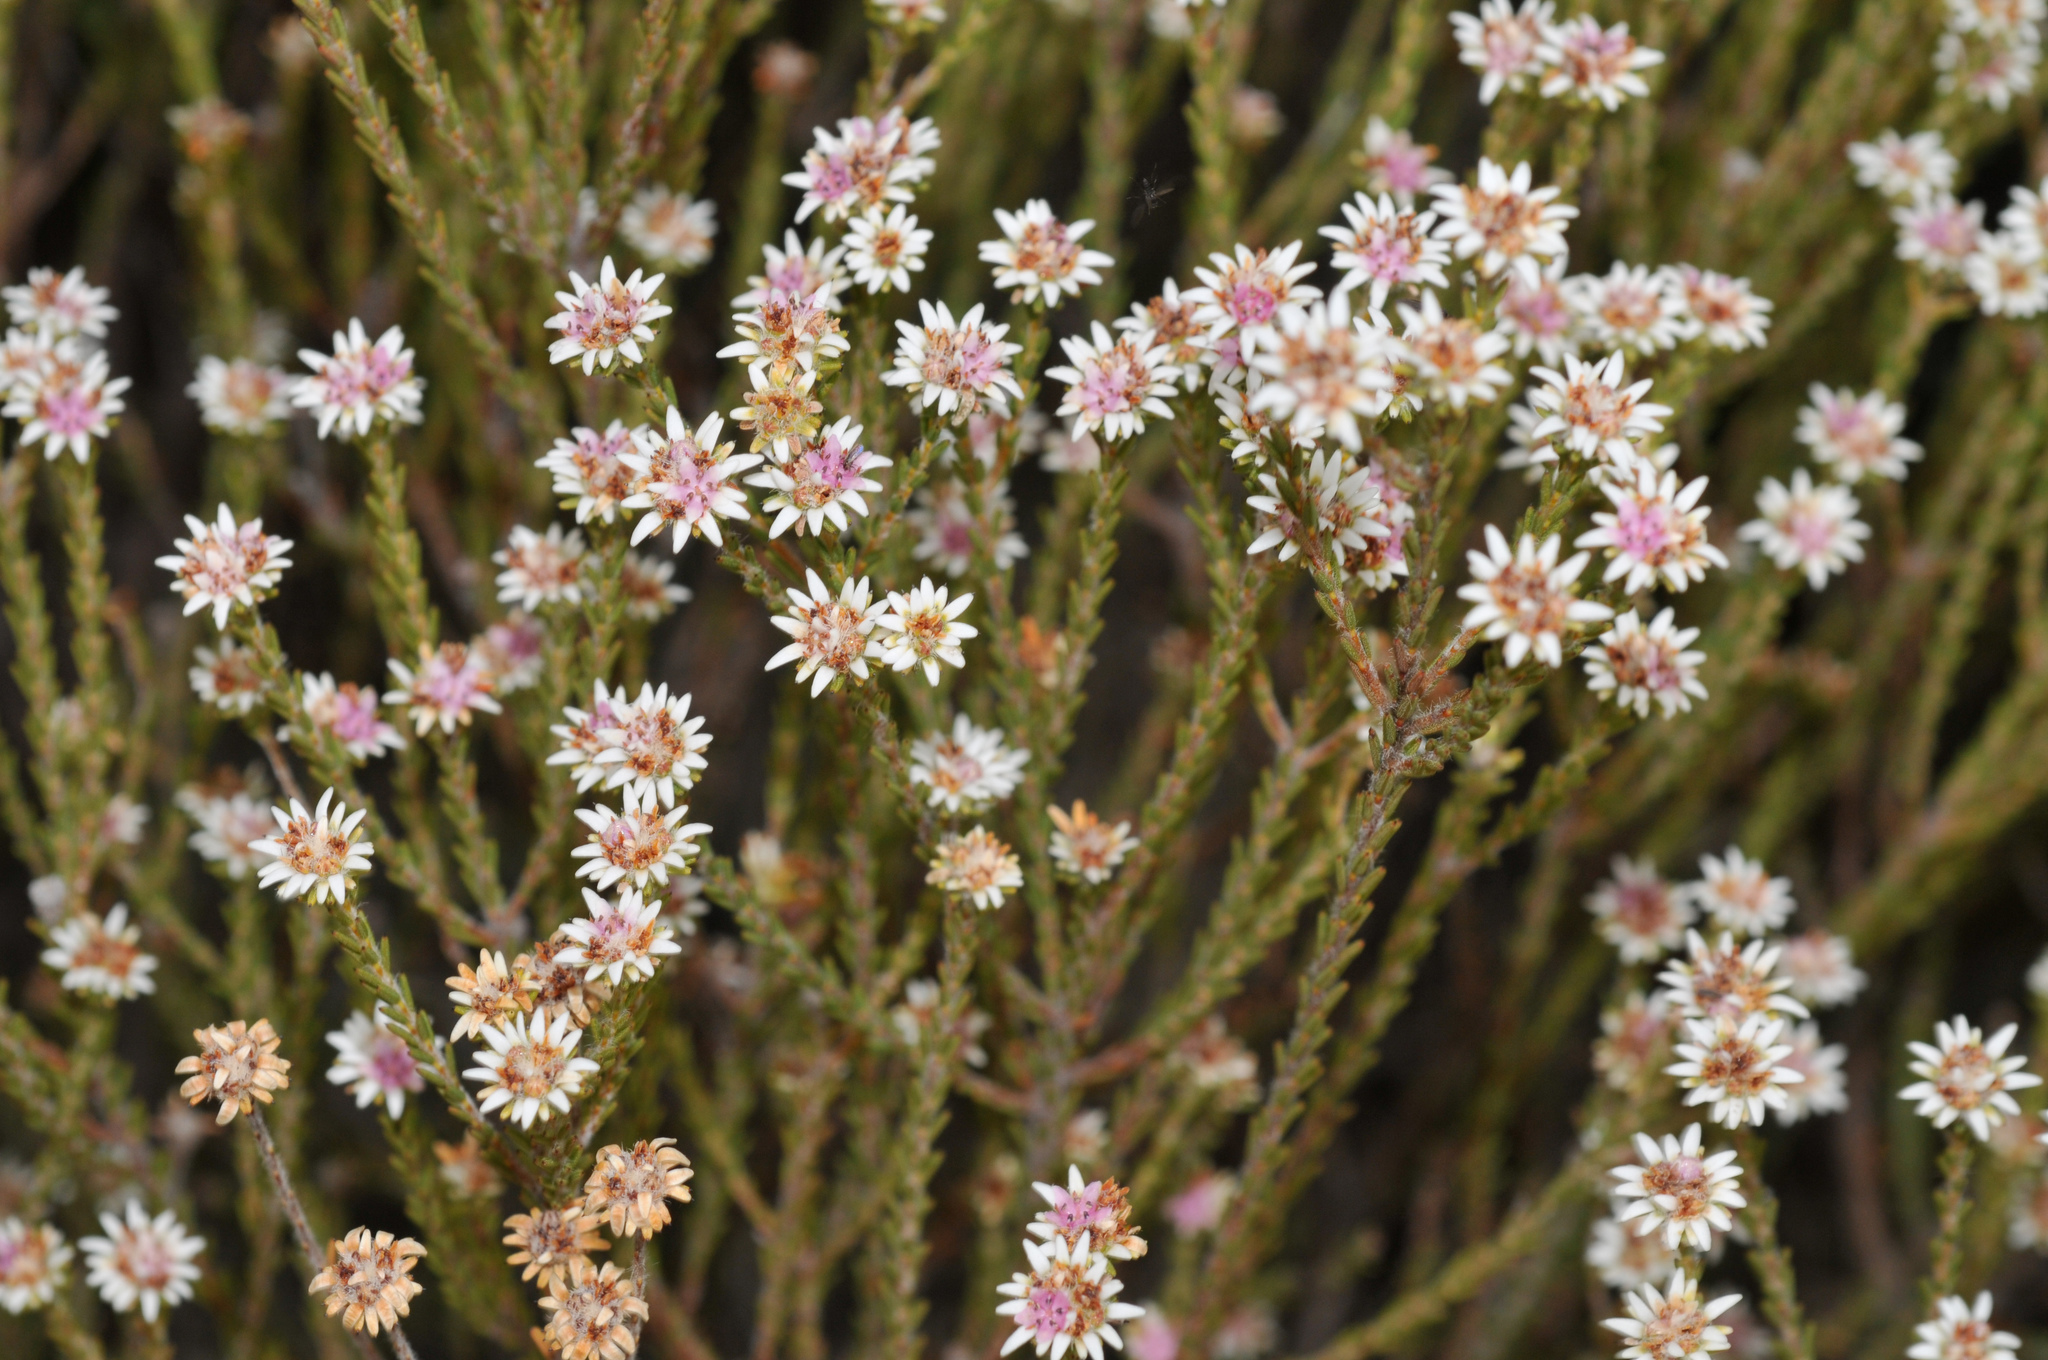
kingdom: Plantae
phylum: Tracheophyta
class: Magnoliopsida
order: Bruniales
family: Bruniaceae
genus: Staavia
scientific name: Staavia radiata
